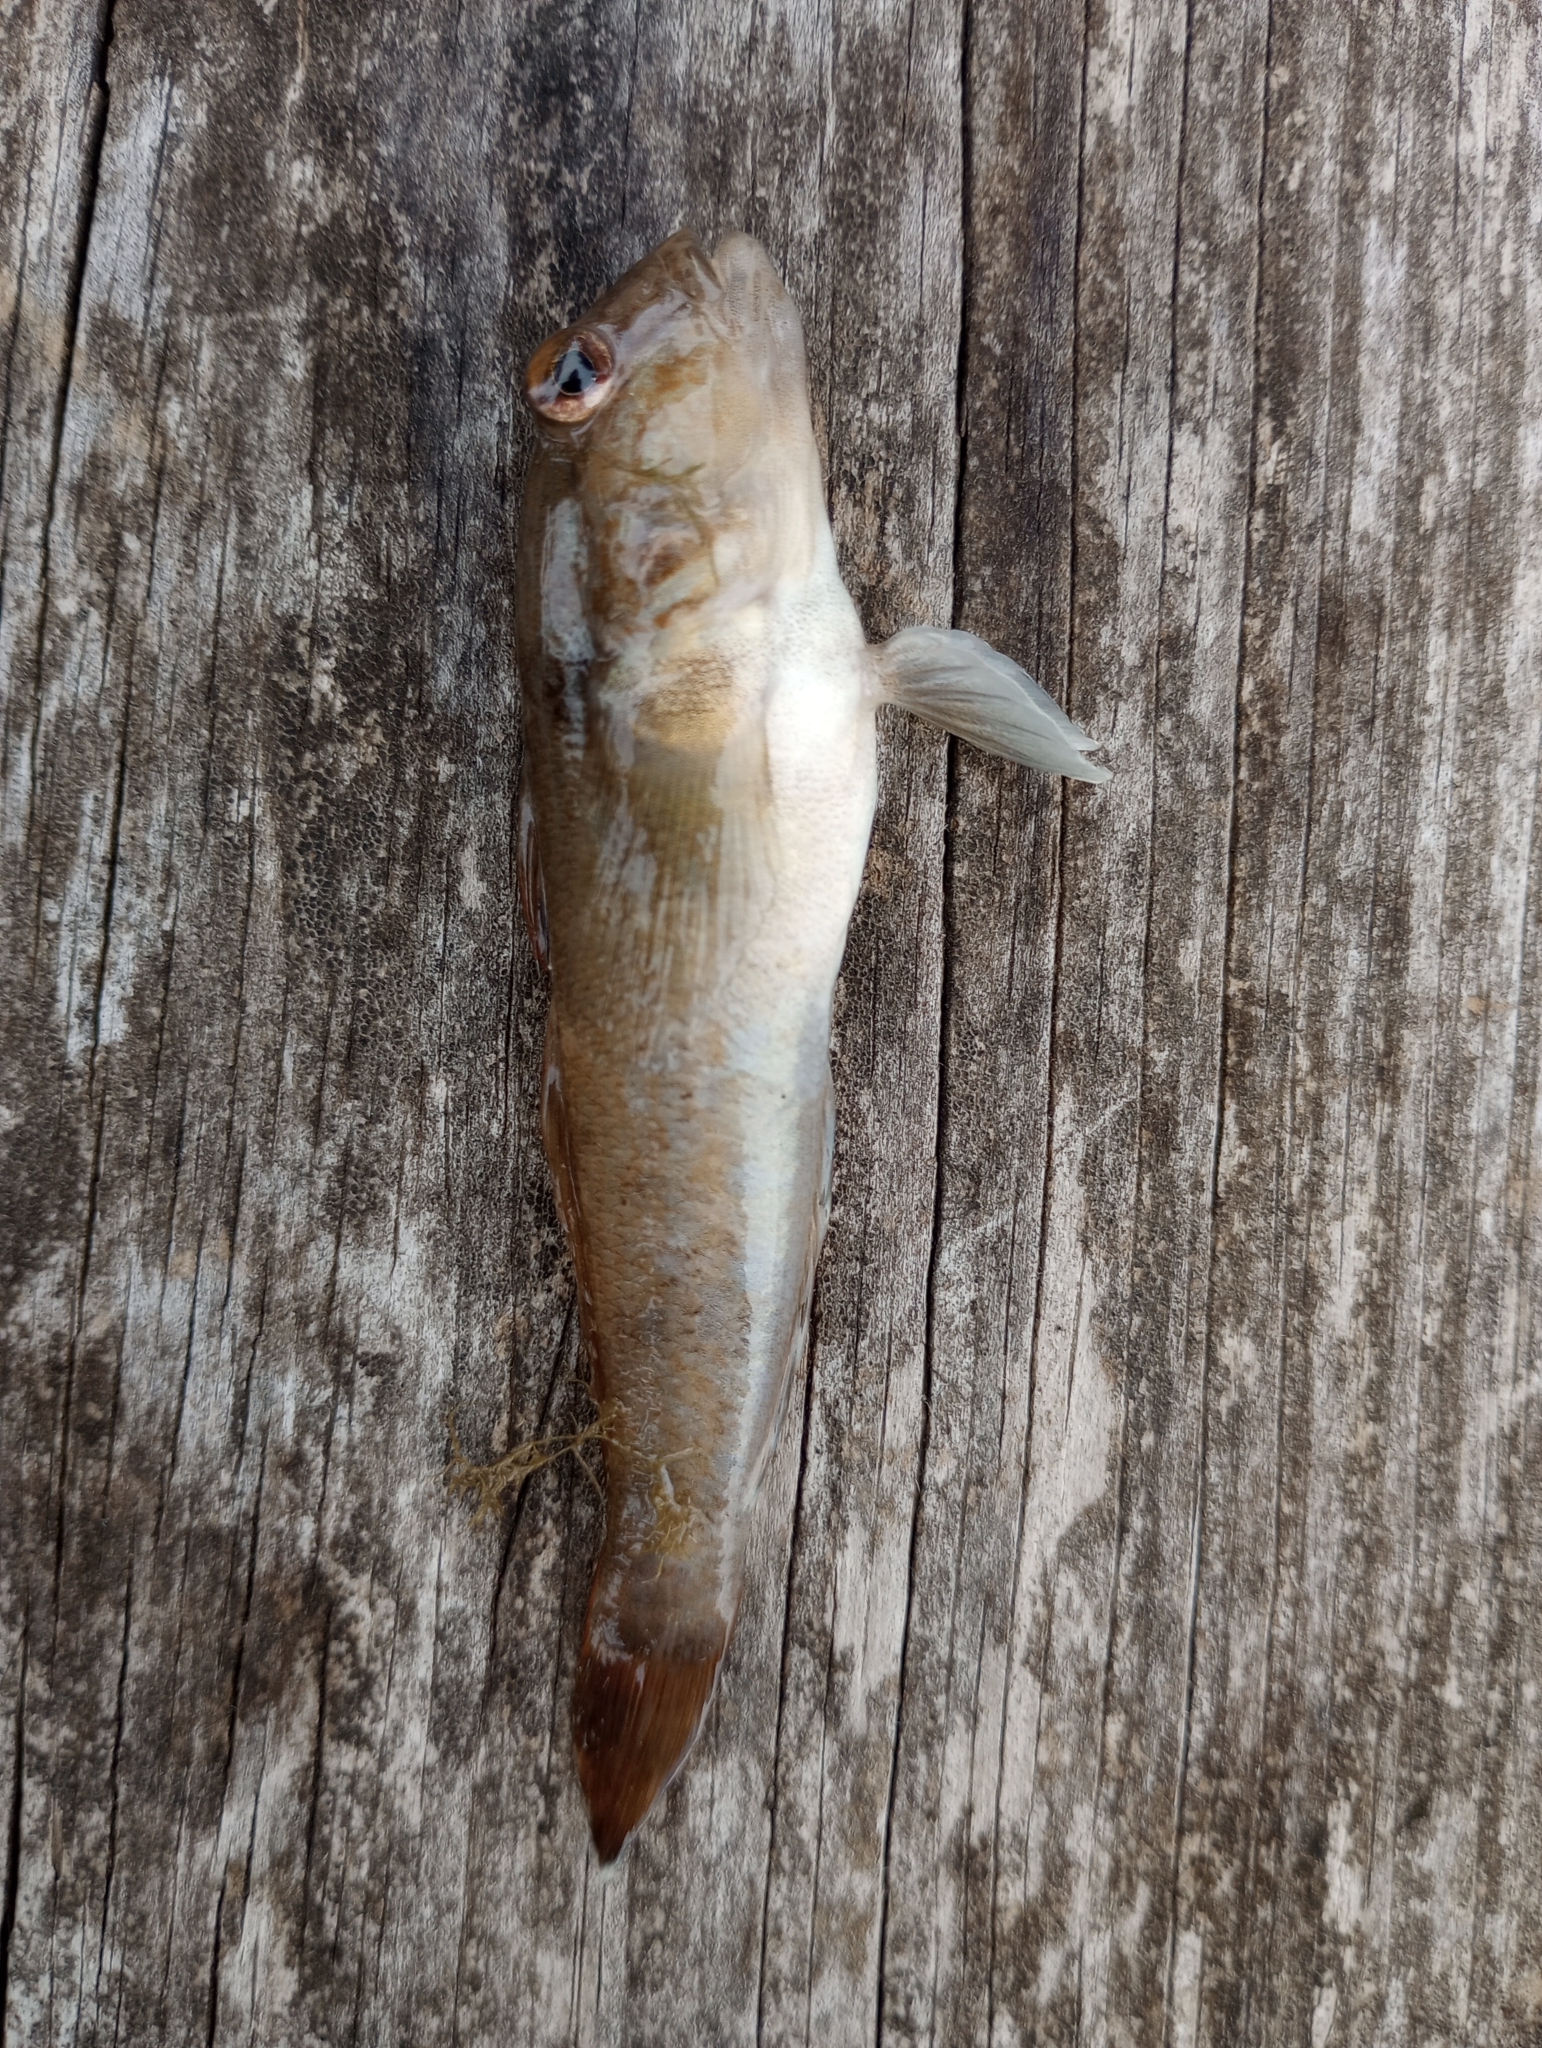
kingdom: Animalia
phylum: Chordata
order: Perciformes
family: Gobiidae
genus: Neogobius
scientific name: Neogobius melanostomus
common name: Round goby
